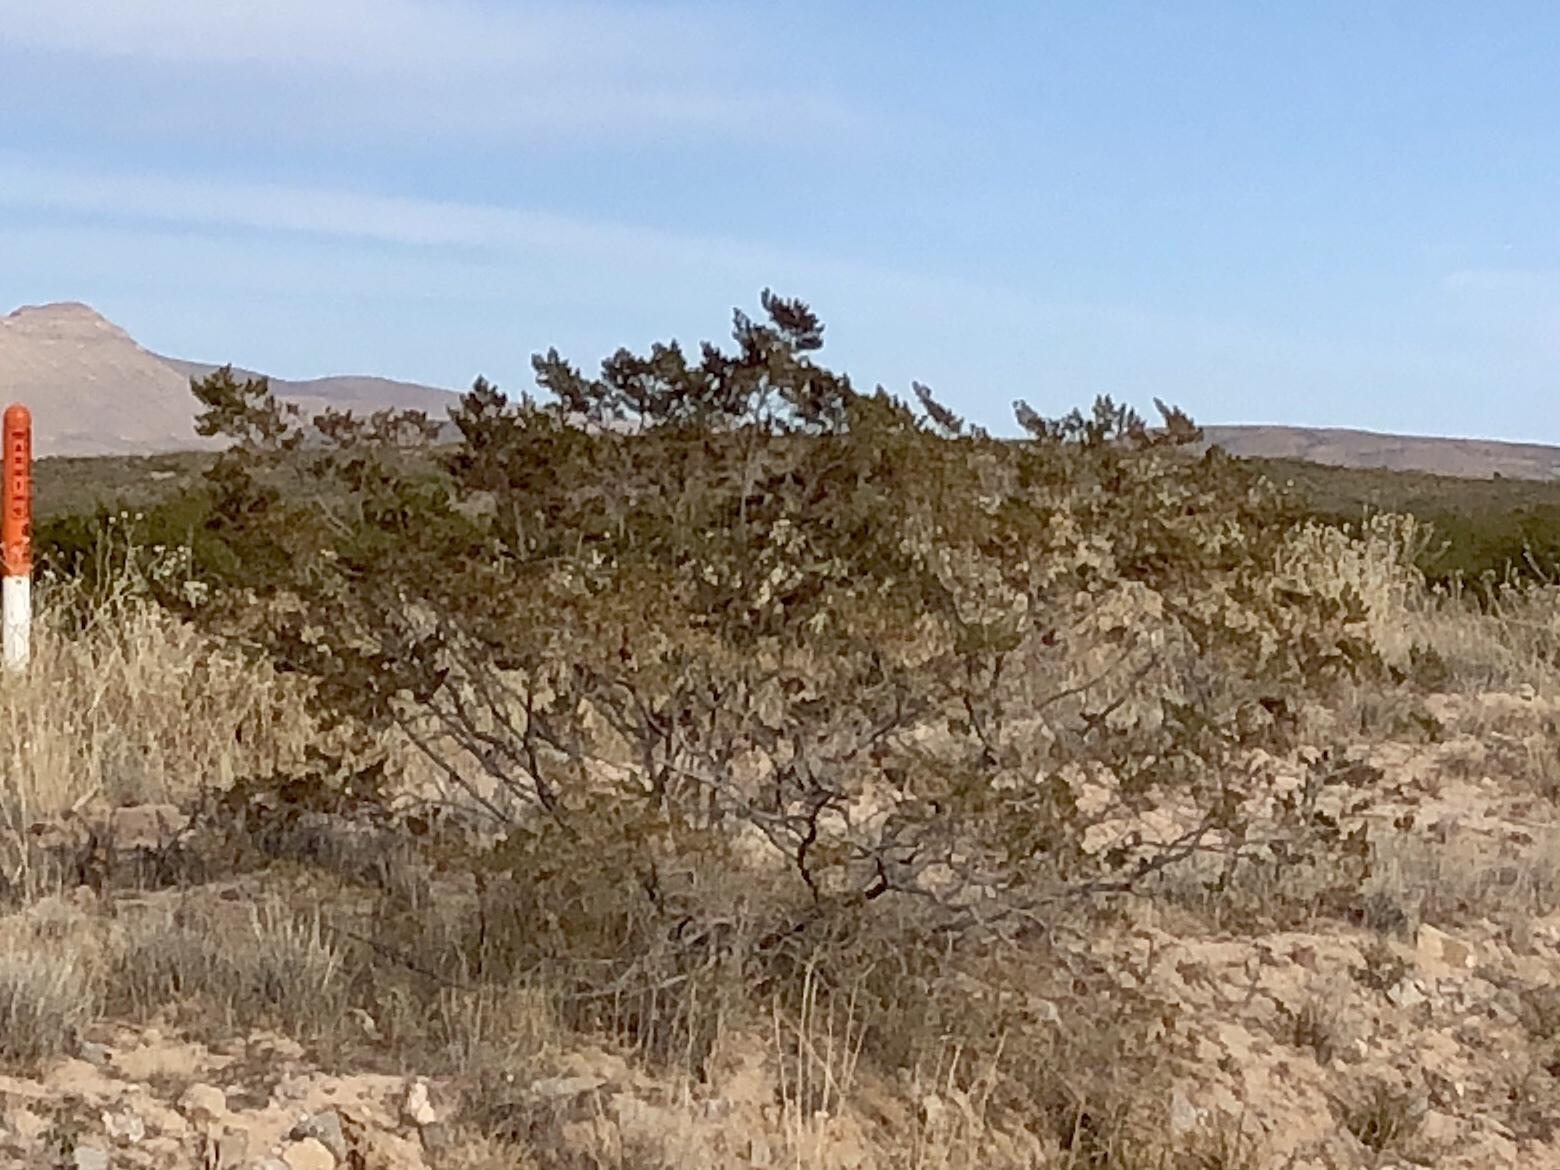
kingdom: Plantae
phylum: Tracheophyta
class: Magnoliopsida
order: Zygophyllales
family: Zygophyllaceae
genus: Larrea
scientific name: Larrea tridentata
